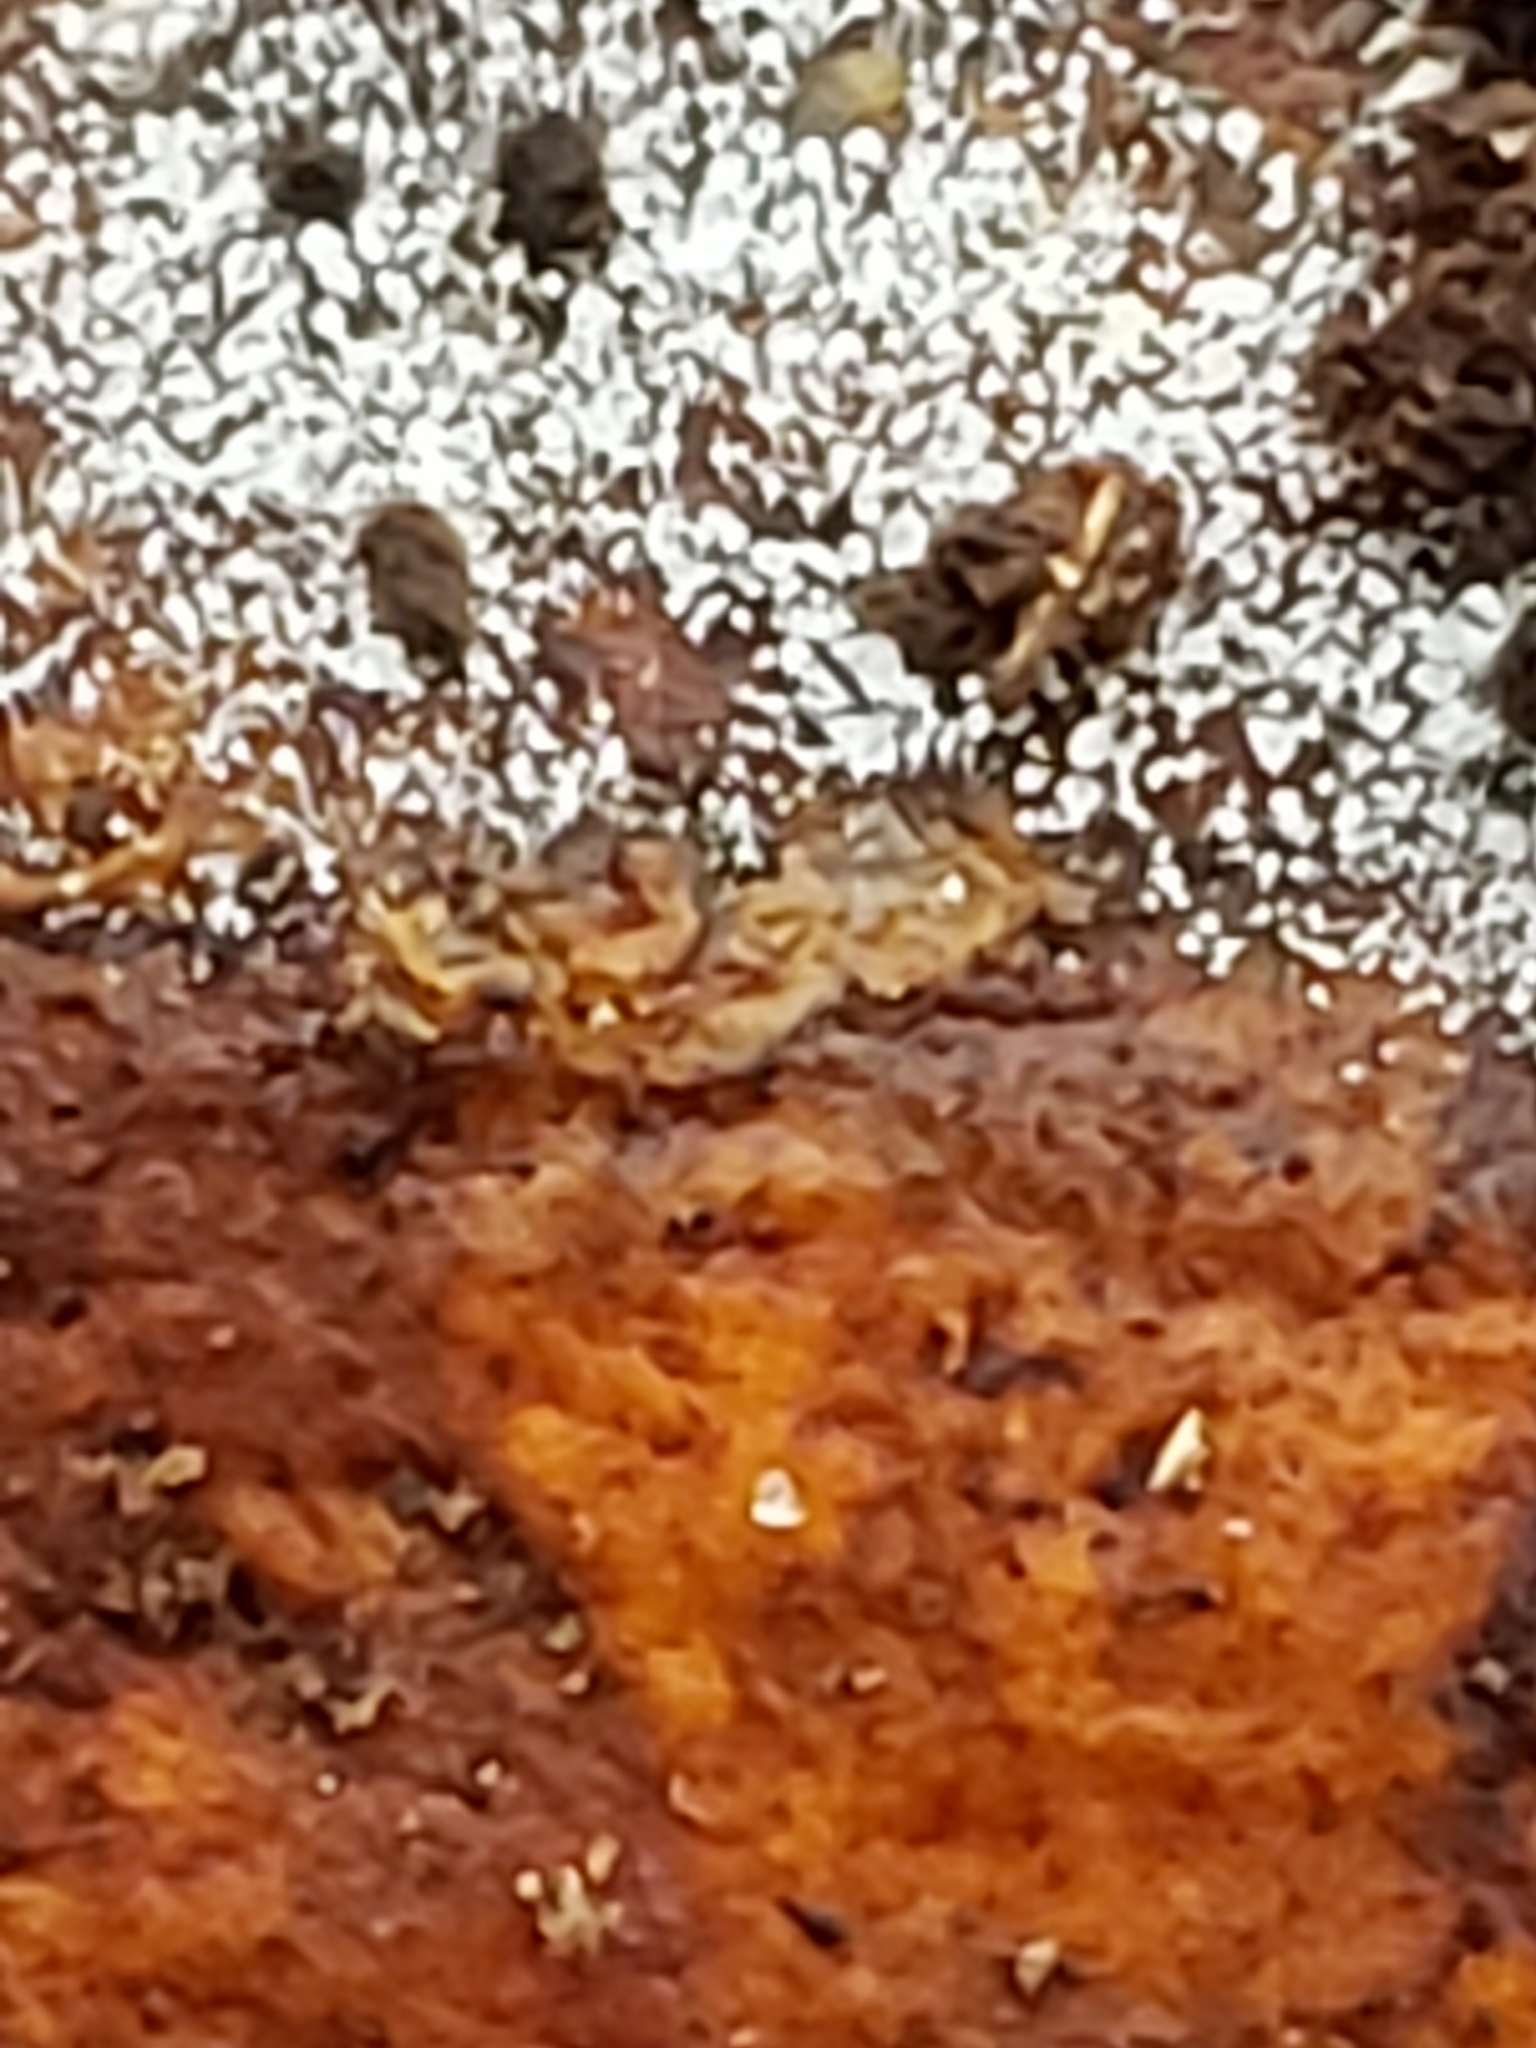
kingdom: Fungi
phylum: Ascomycota
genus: Gloiosphaera
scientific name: Gloiosphaera
